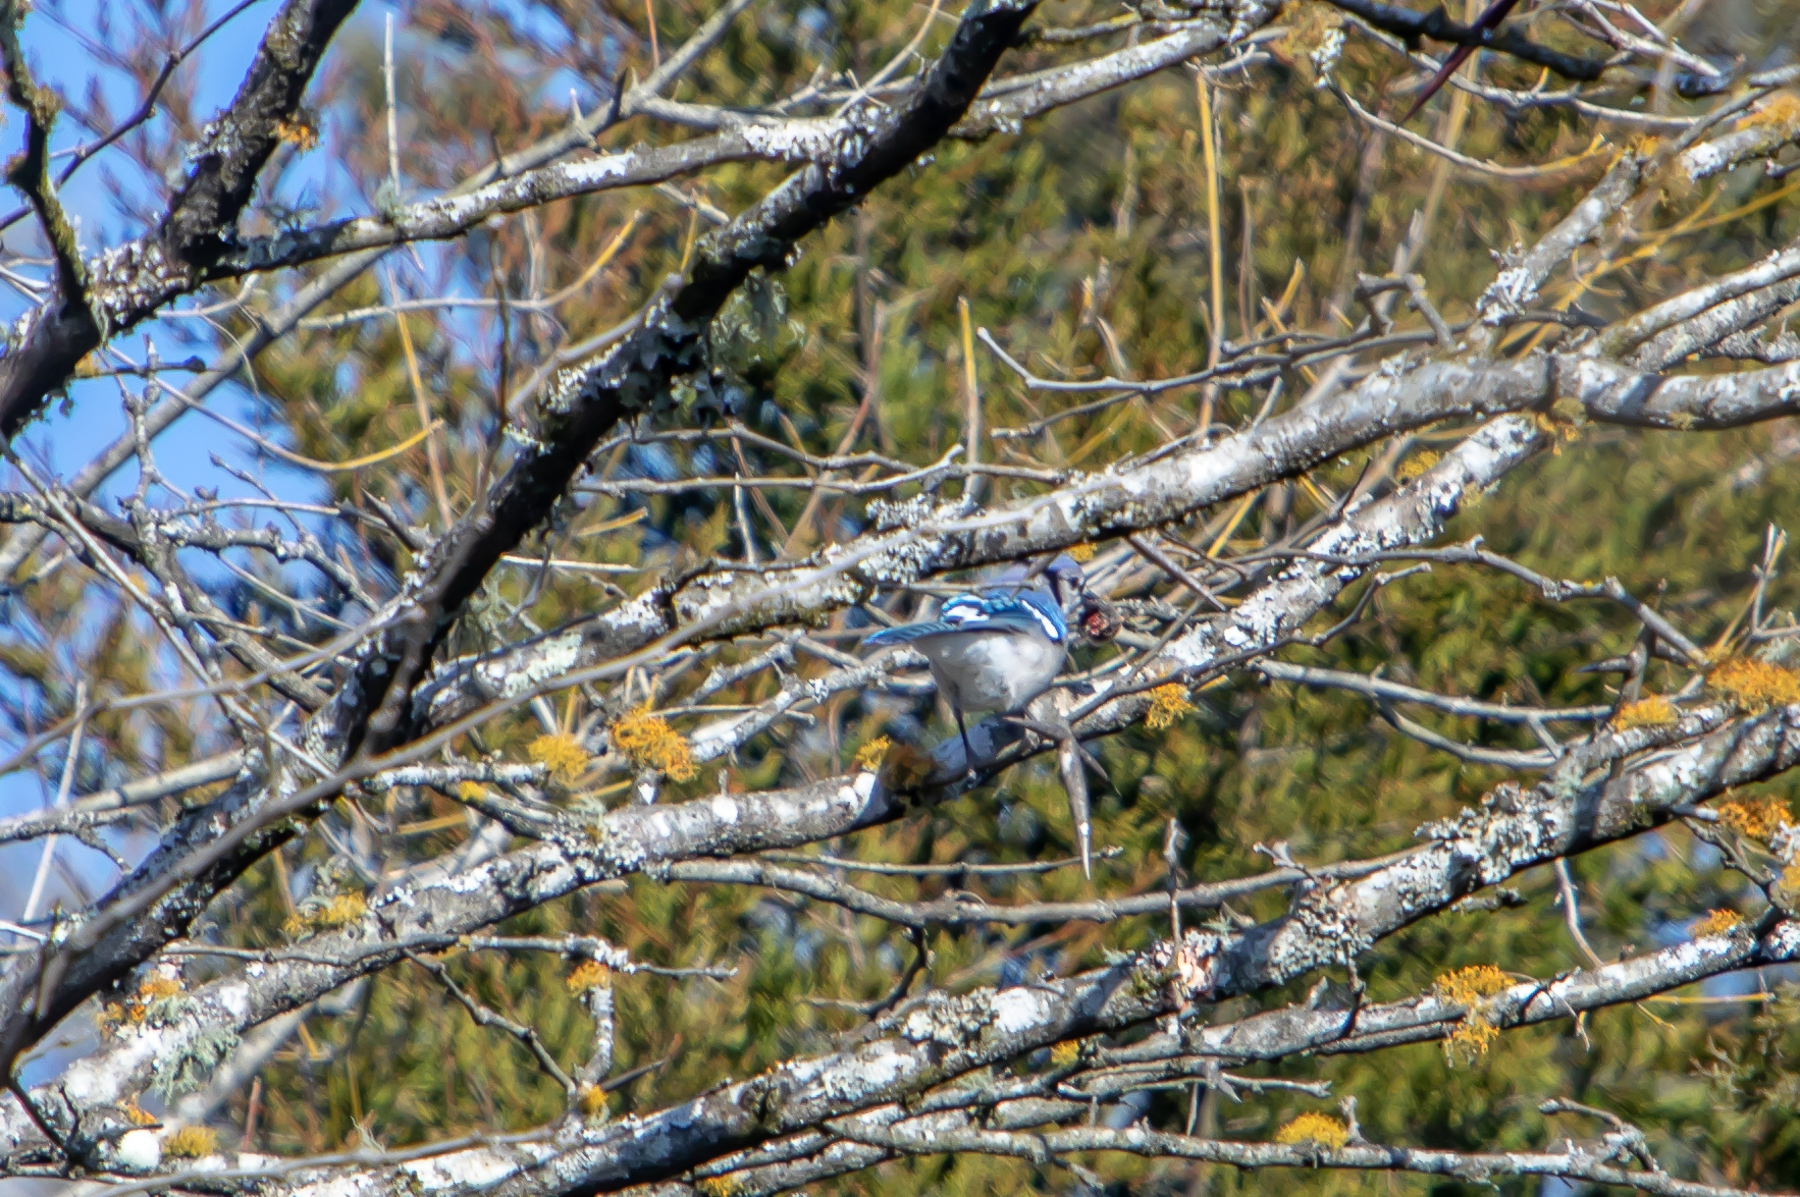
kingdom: Animalia
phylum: Chordata
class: Aves
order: Passeriformes
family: Corvidae
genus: Cyanocitta
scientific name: Cyanocitta cristata
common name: Blue jay
